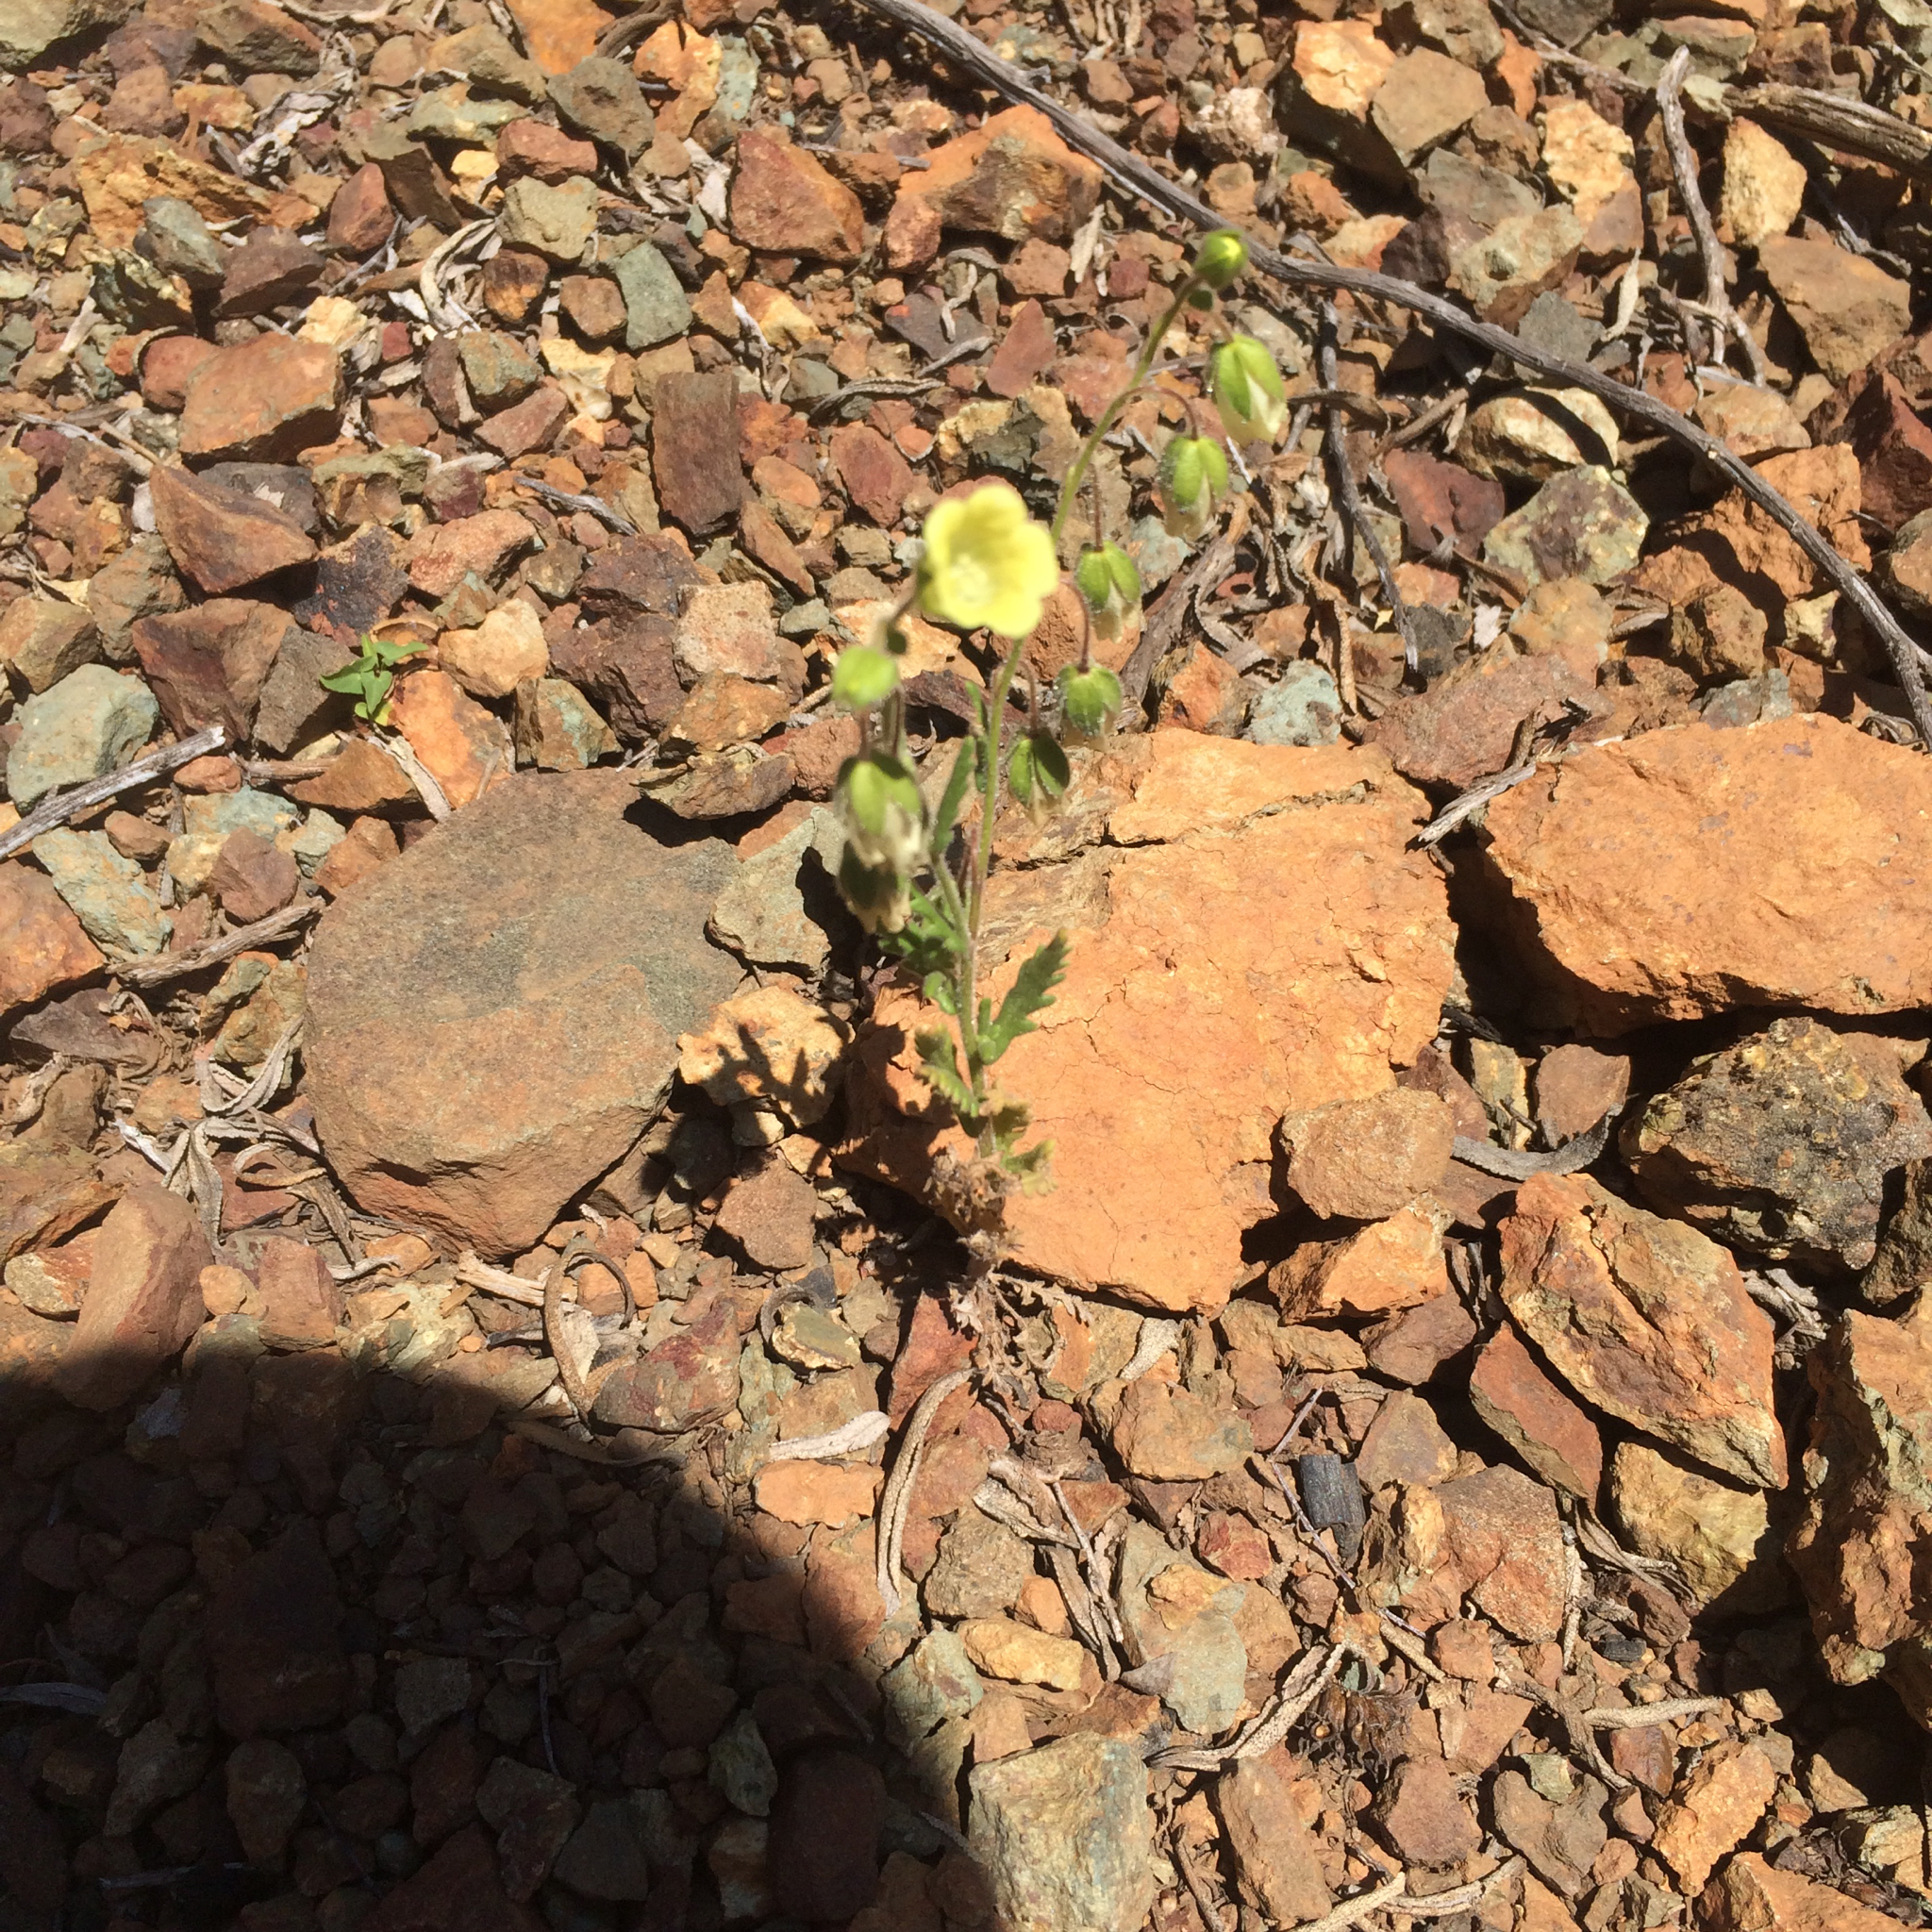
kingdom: Plantae
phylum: Tracheophyta
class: Magnoliopsida
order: Boraginales
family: Hydrophyllaceae
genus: Emmenanthe
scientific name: Emmenanthe penduliflora
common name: Whispering-bells
